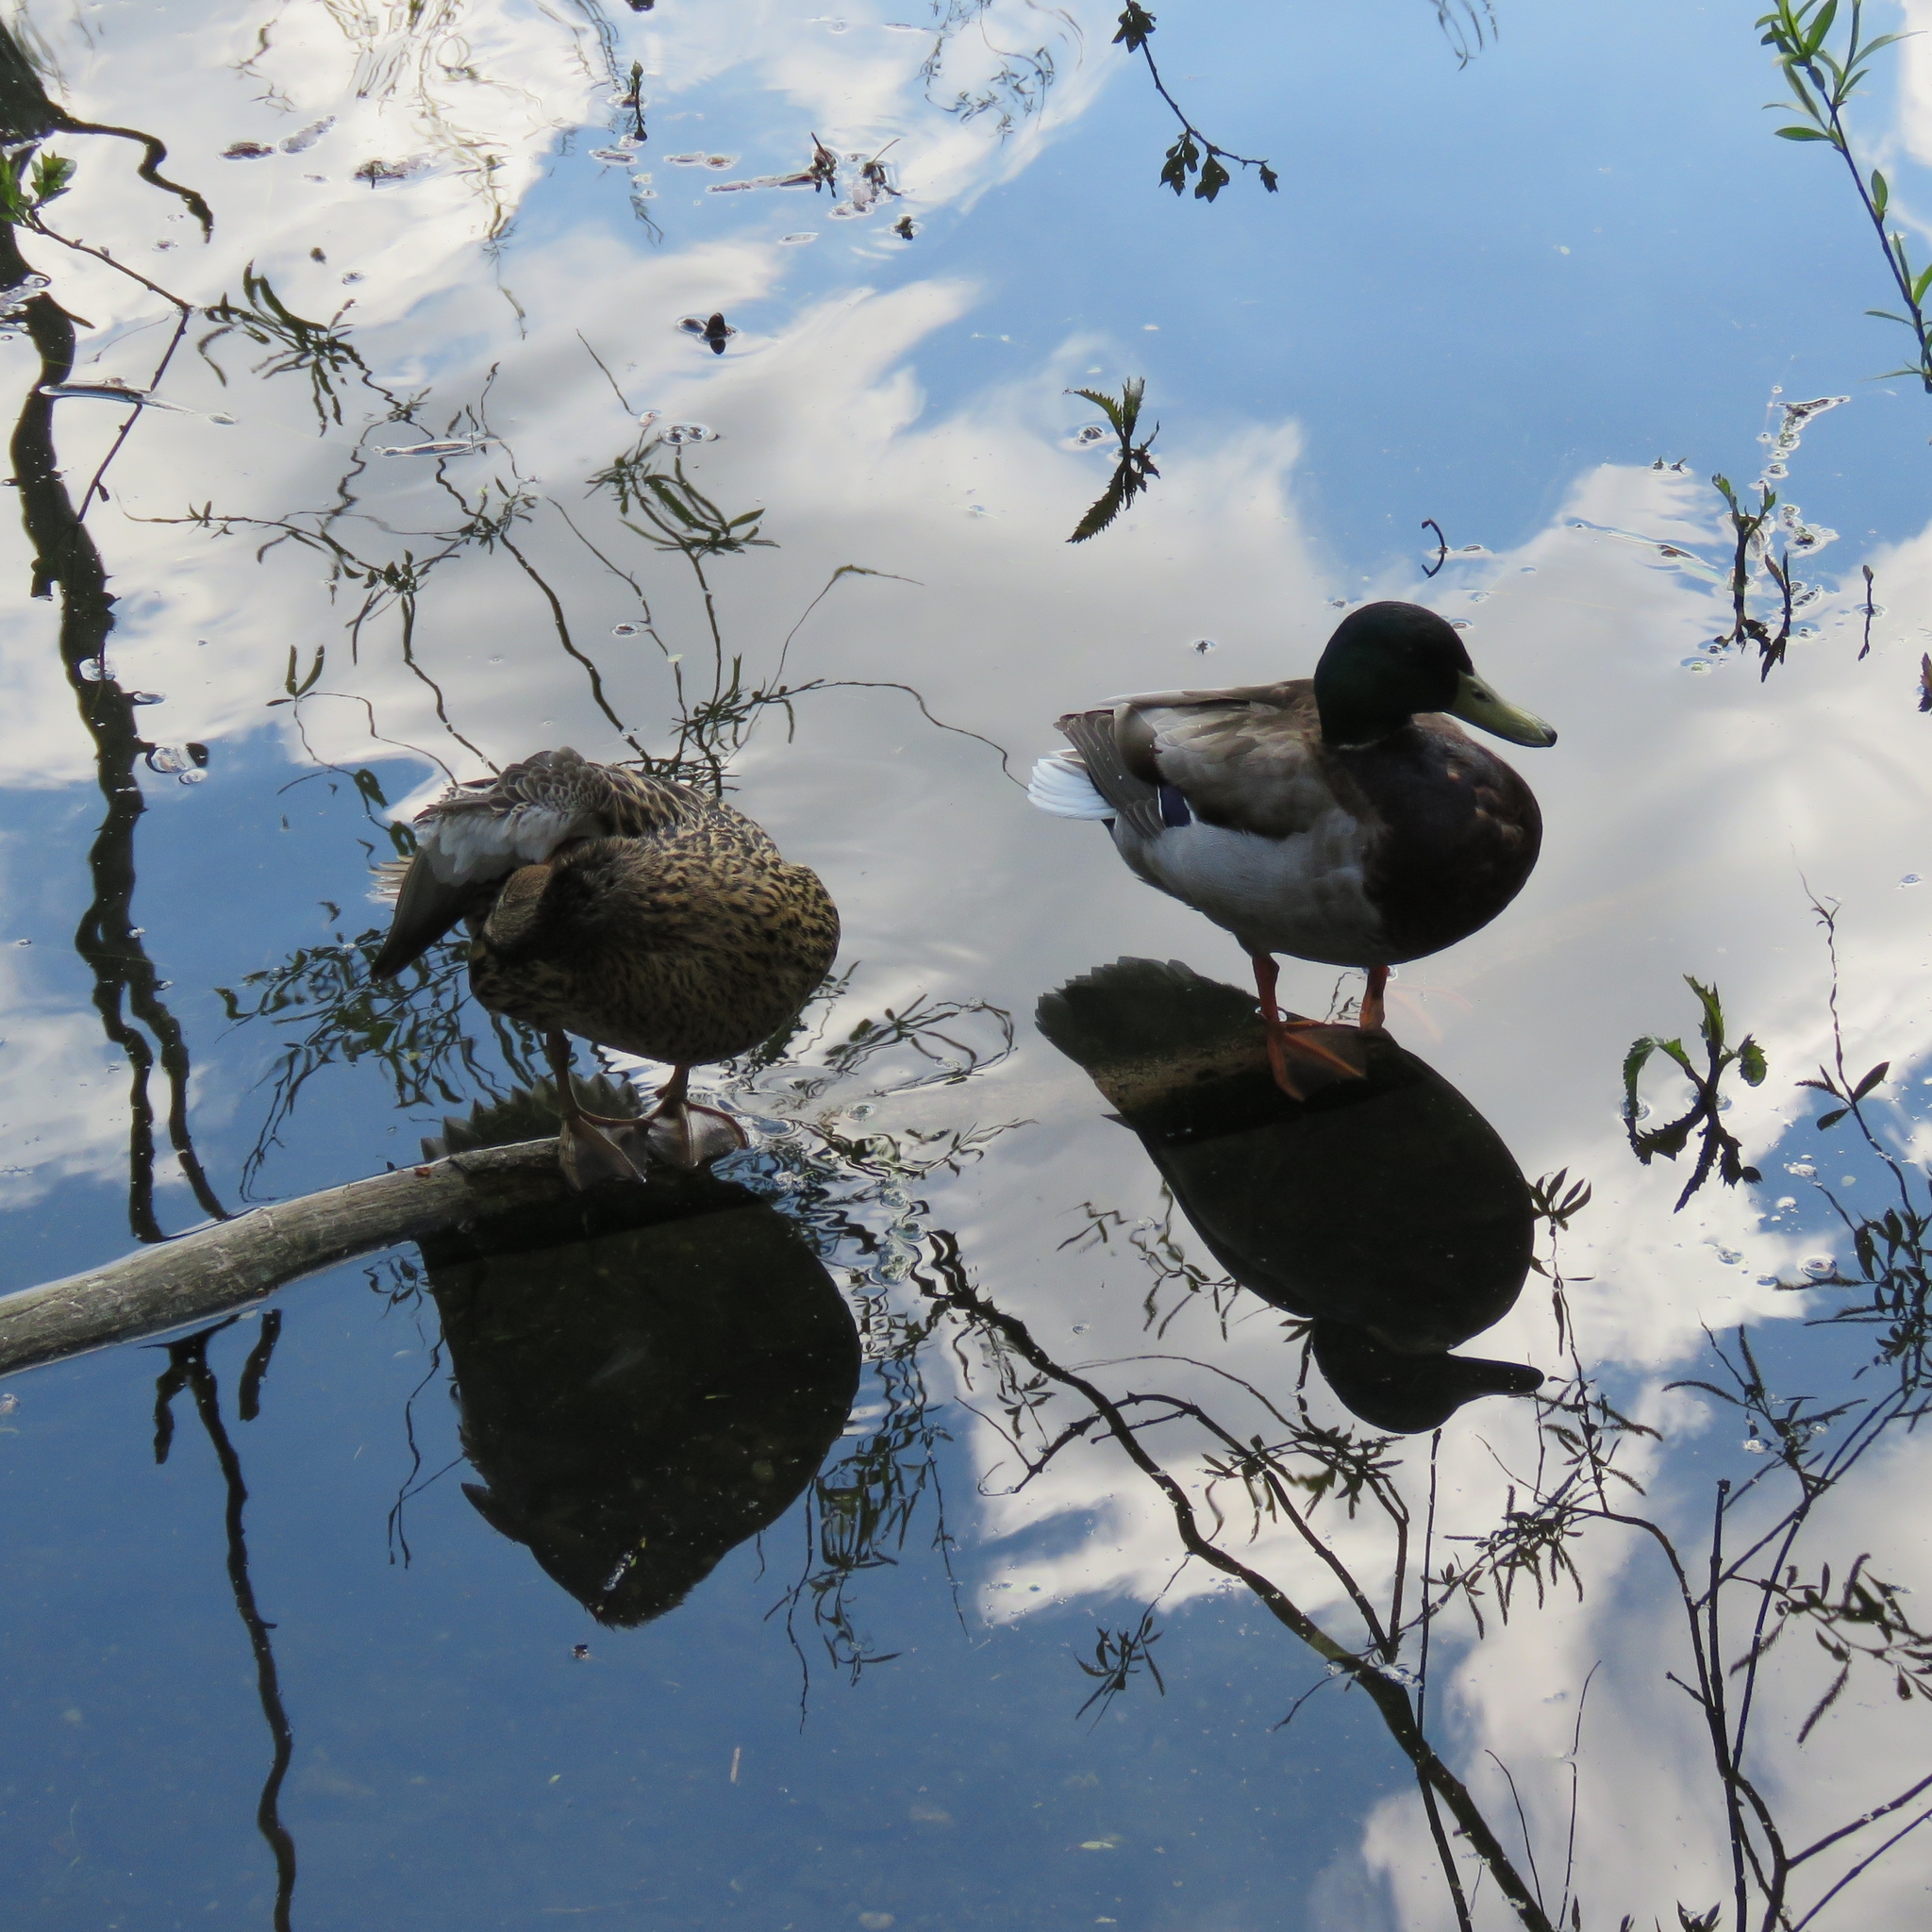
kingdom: Animalia
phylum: Chordata
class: Aves
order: Anseriformes
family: Anatidae
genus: Anas
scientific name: Anas platyrhynchos
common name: Mallard
